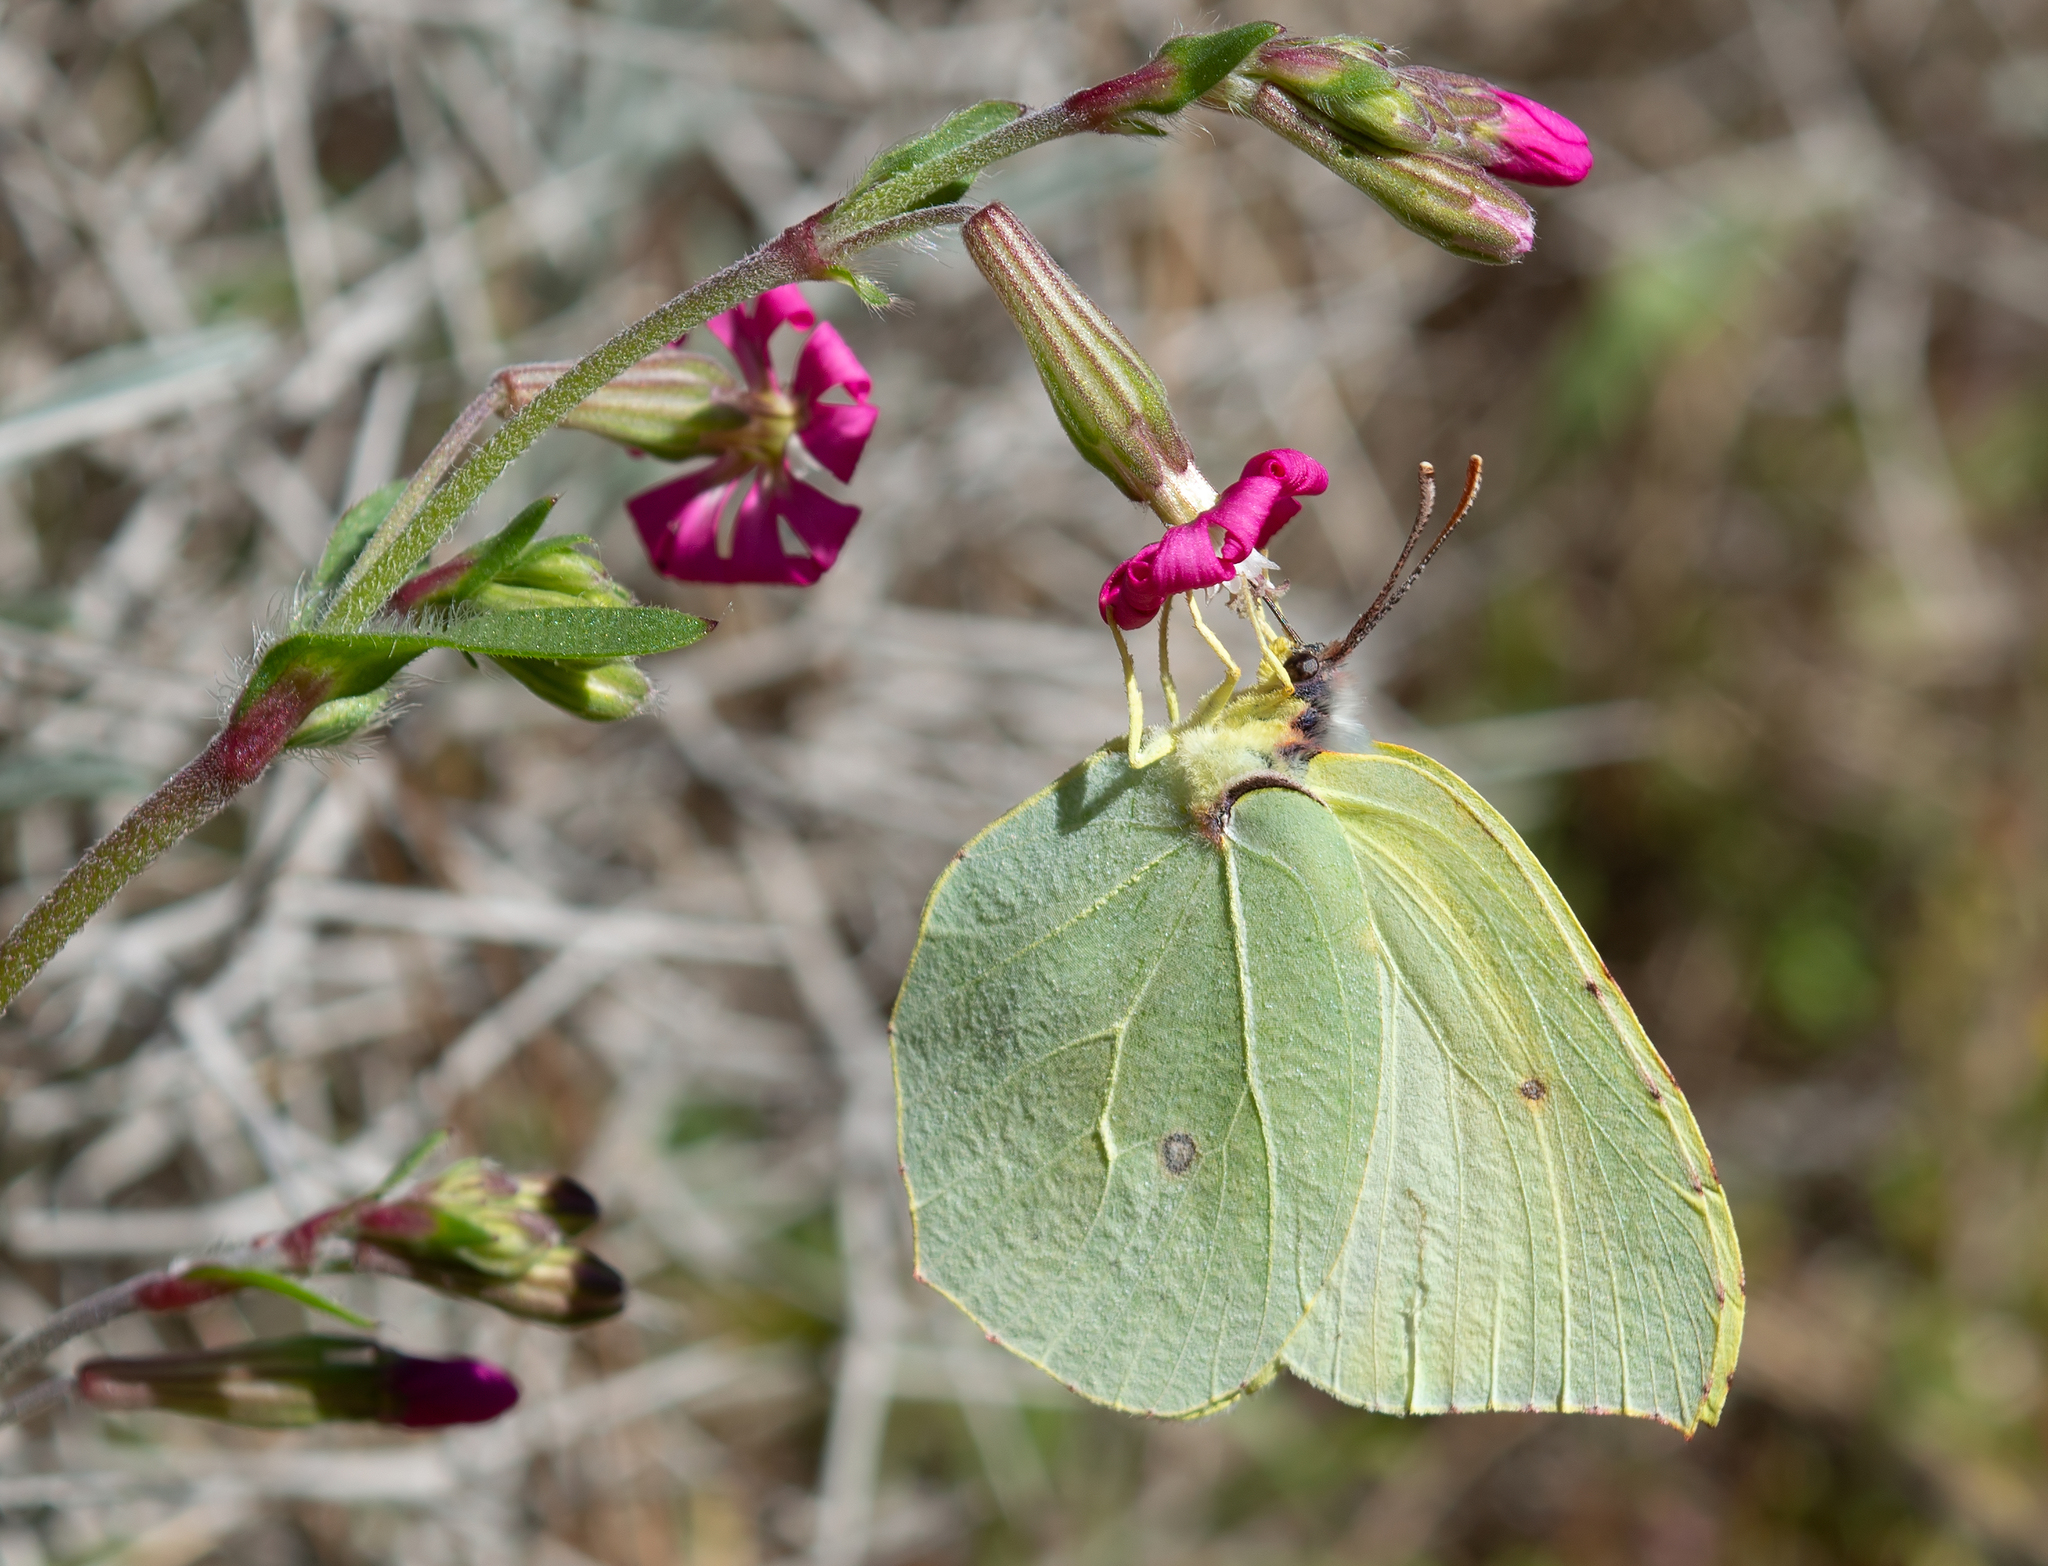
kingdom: Animalia
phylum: Arthropoda
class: Insecta
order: Lepidoptera
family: Pieridae
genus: Gonepteryx
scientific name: Gonepteryx cleopatra
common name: Cleopatra
